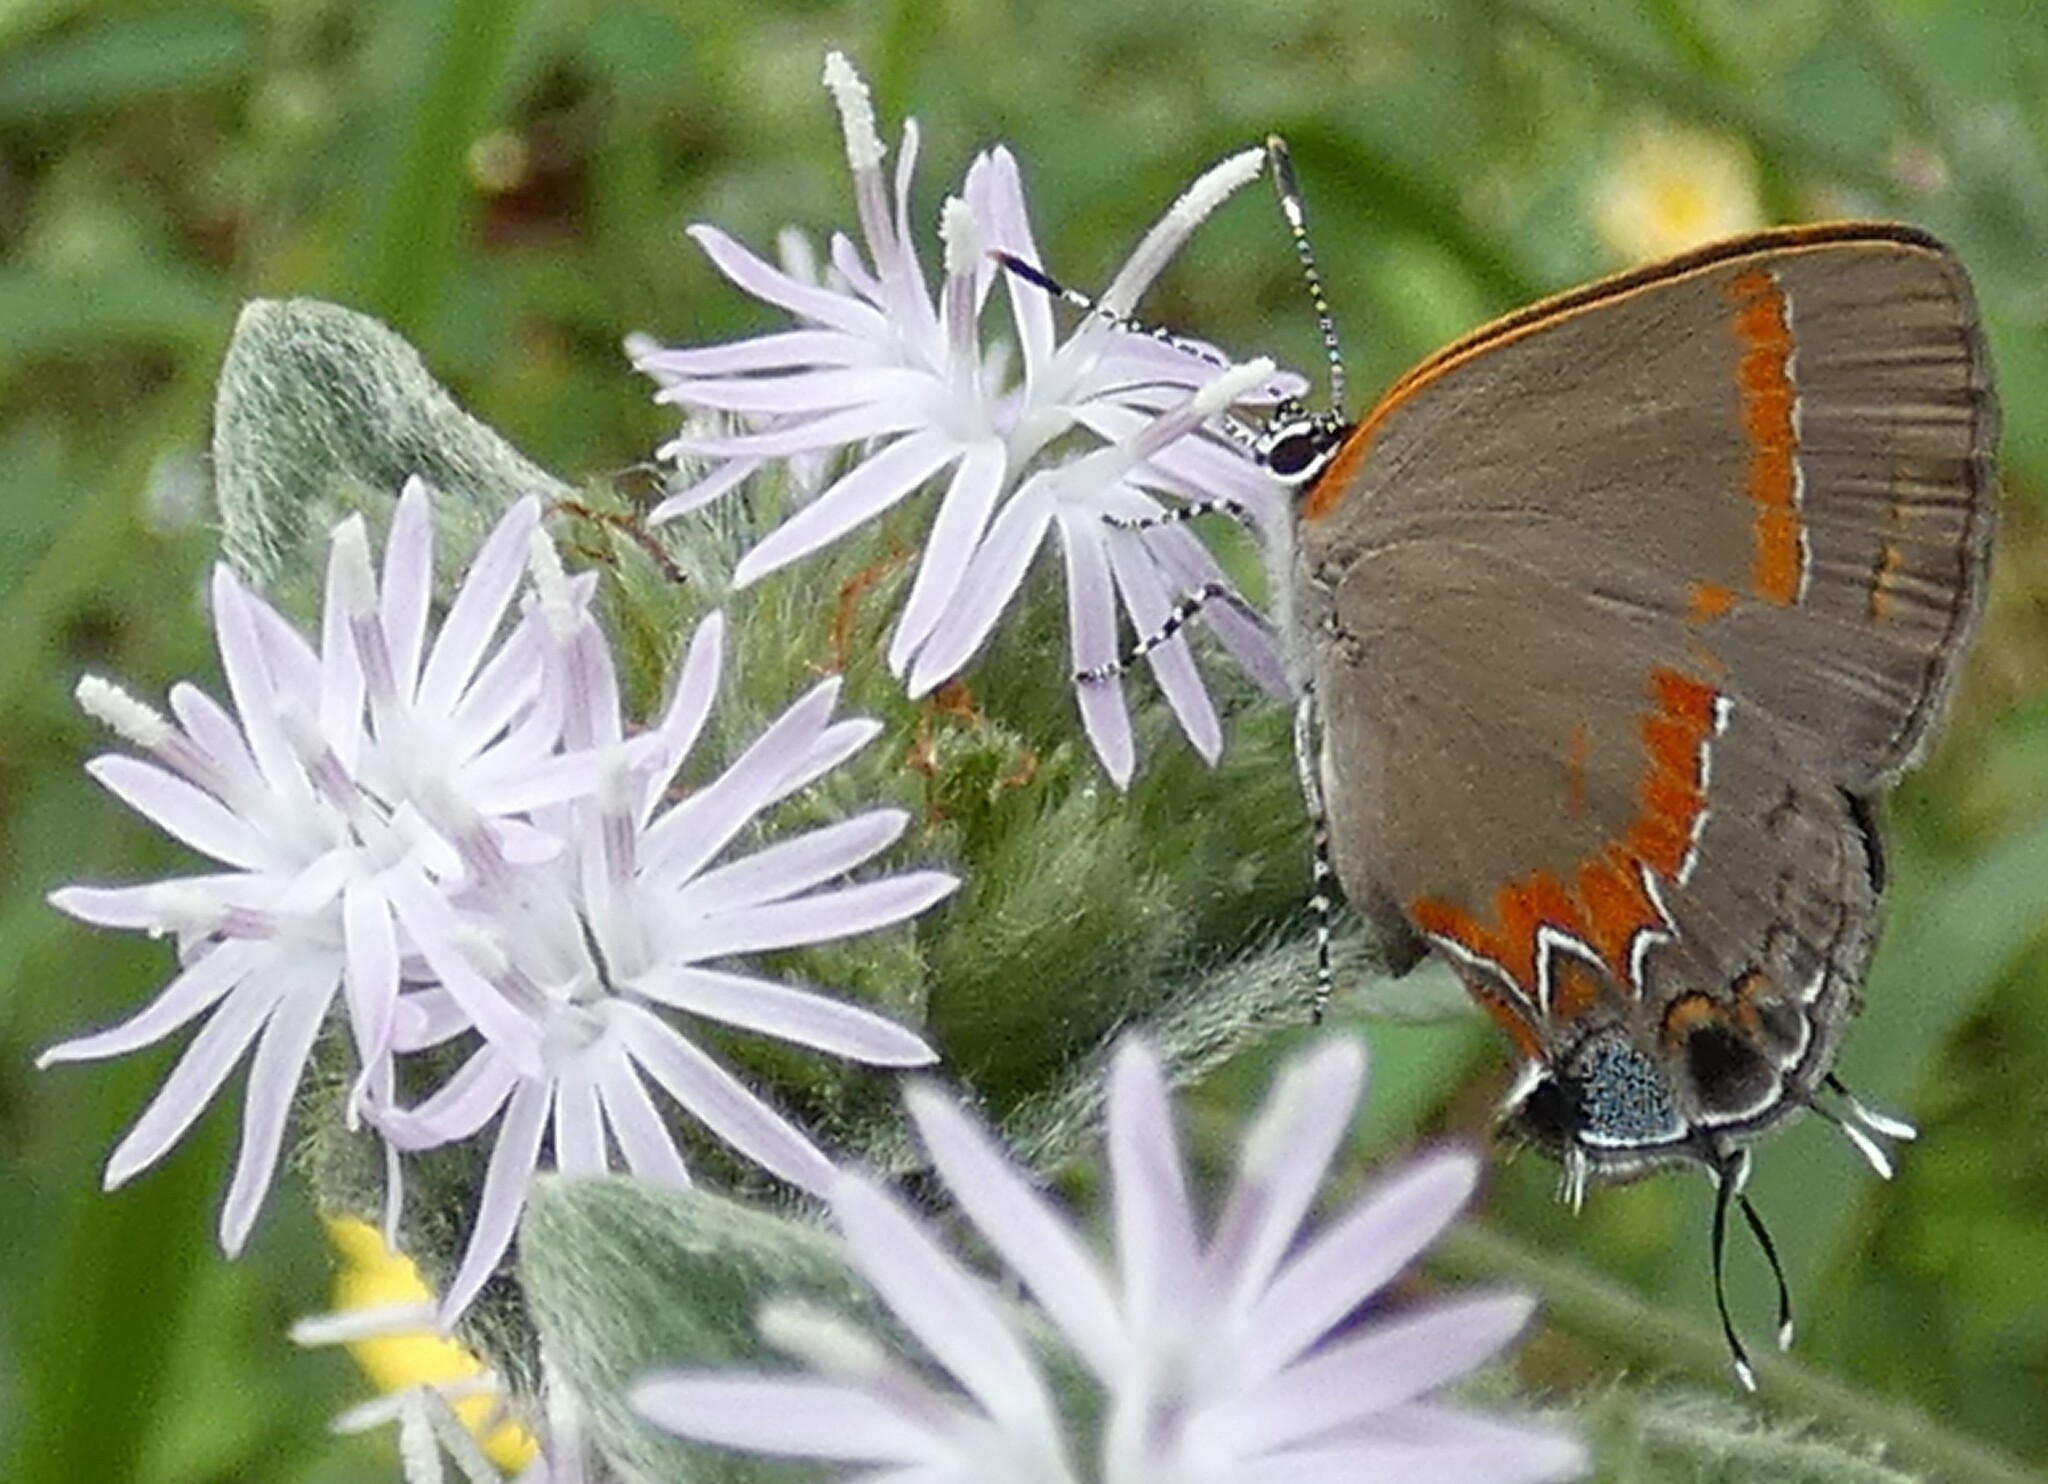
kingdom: Animalia
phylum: Arthropoda
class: Insecta
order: Lepidoptera
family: Lycaenidae
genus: Calycopis
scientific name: Calycopis cecrops
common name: Red-banded hairstreak
